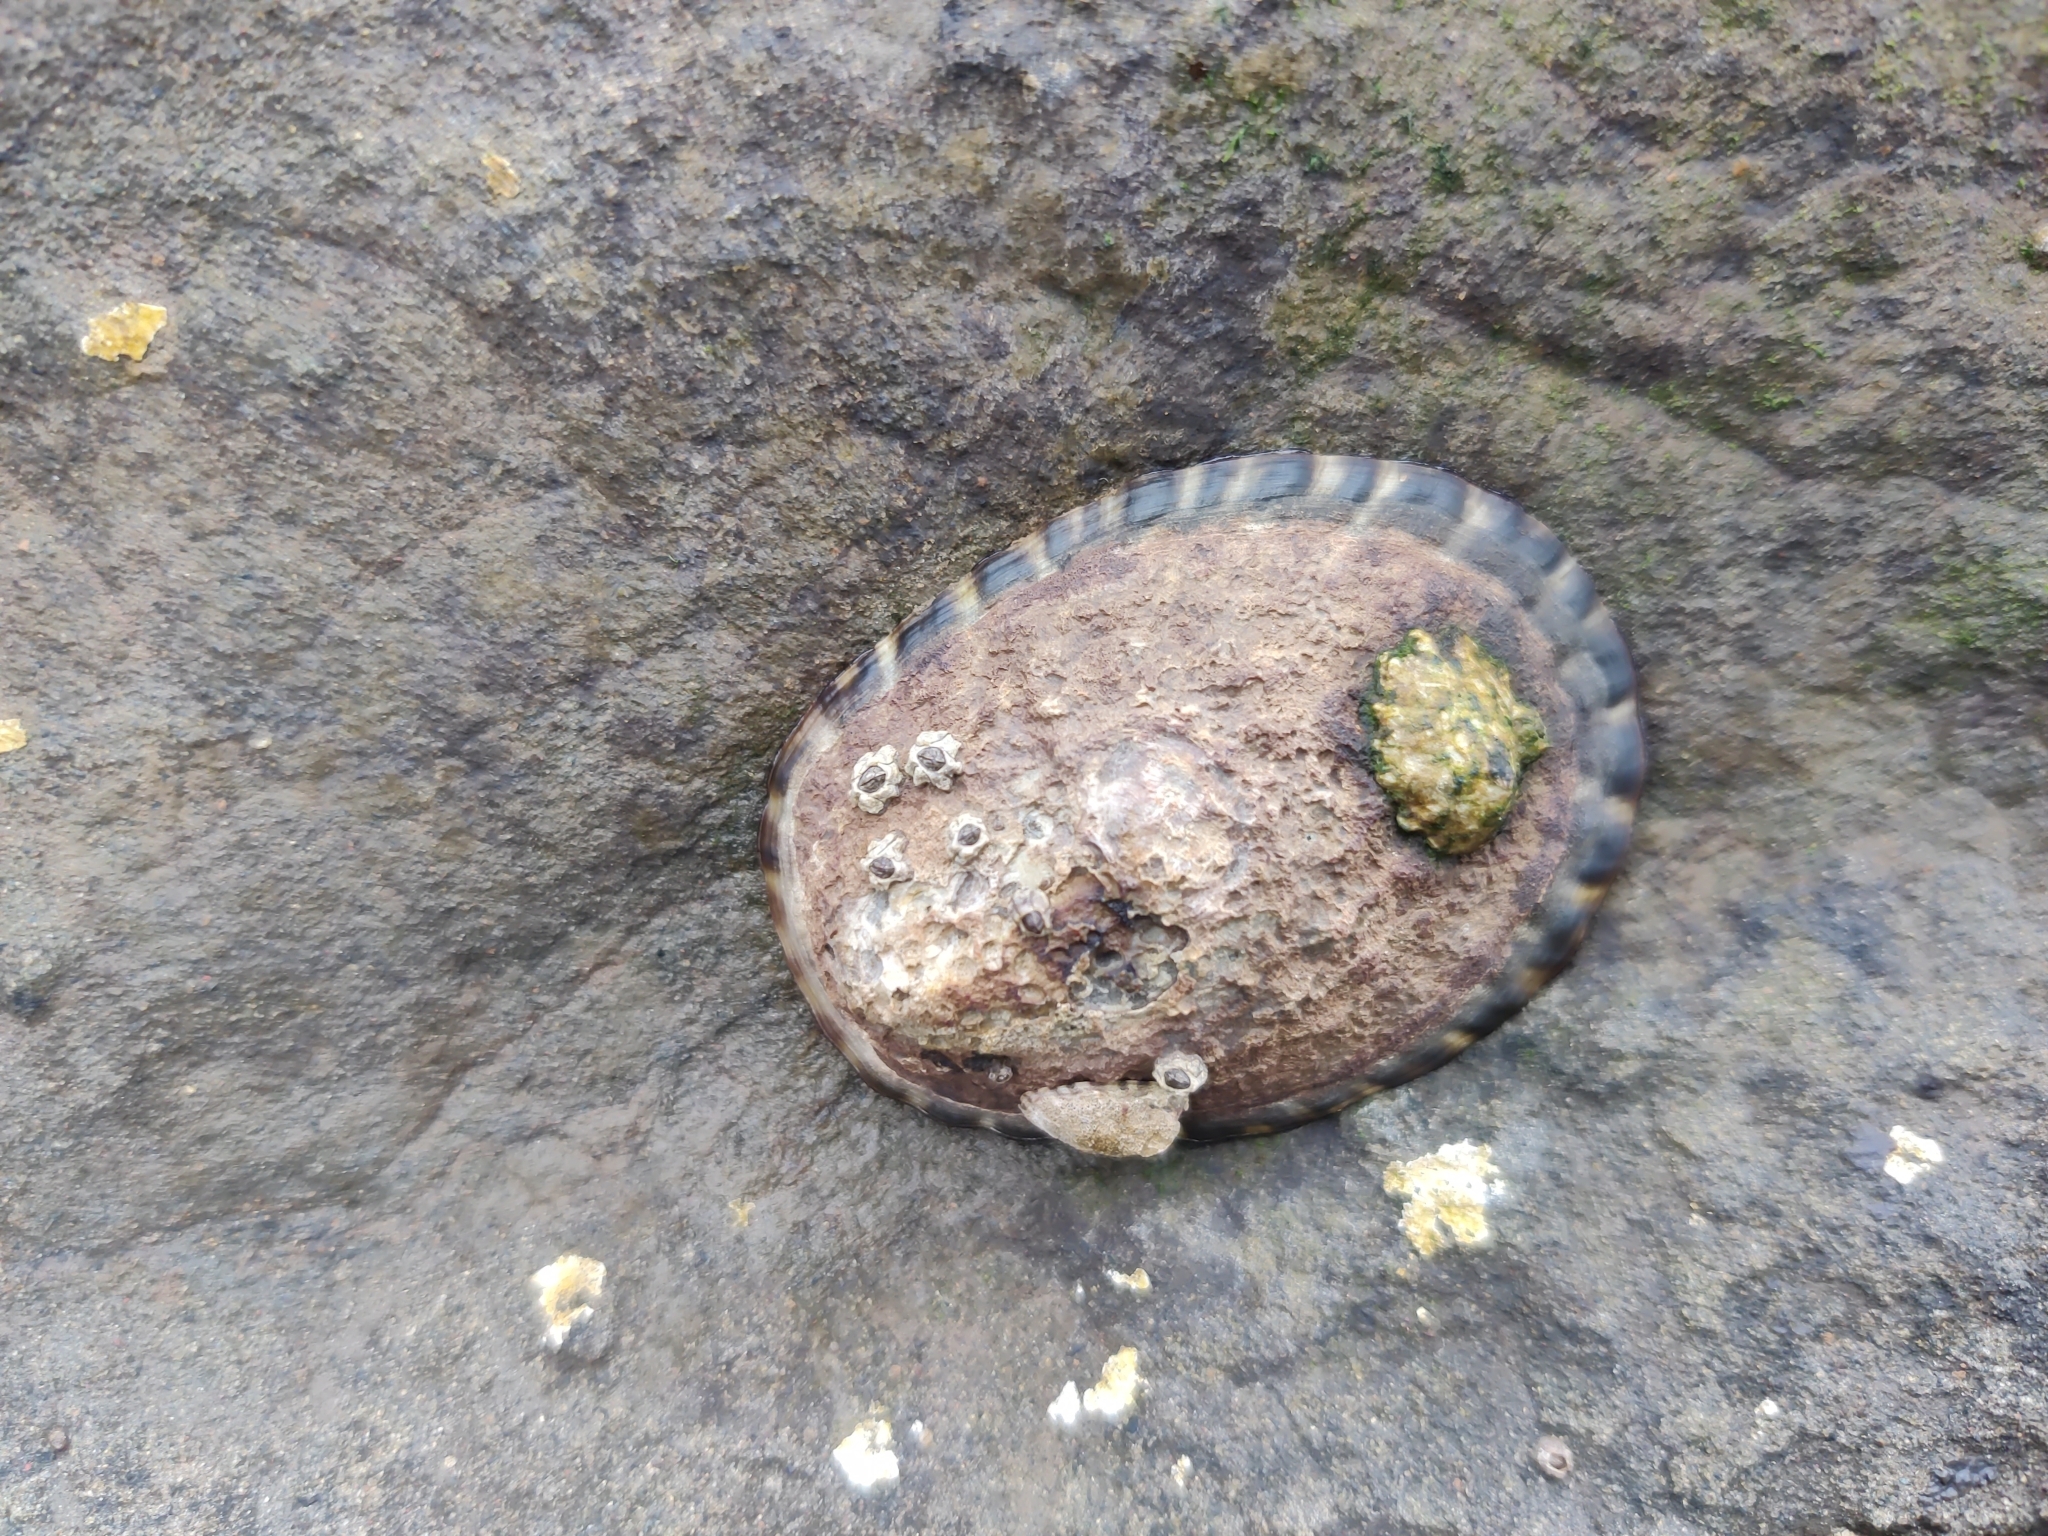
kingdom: Animalia
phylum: Mollusca
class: Gastropoda
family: Lottiidae
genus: Lottia
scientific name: Lottia gigantea
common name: Owl limpet
